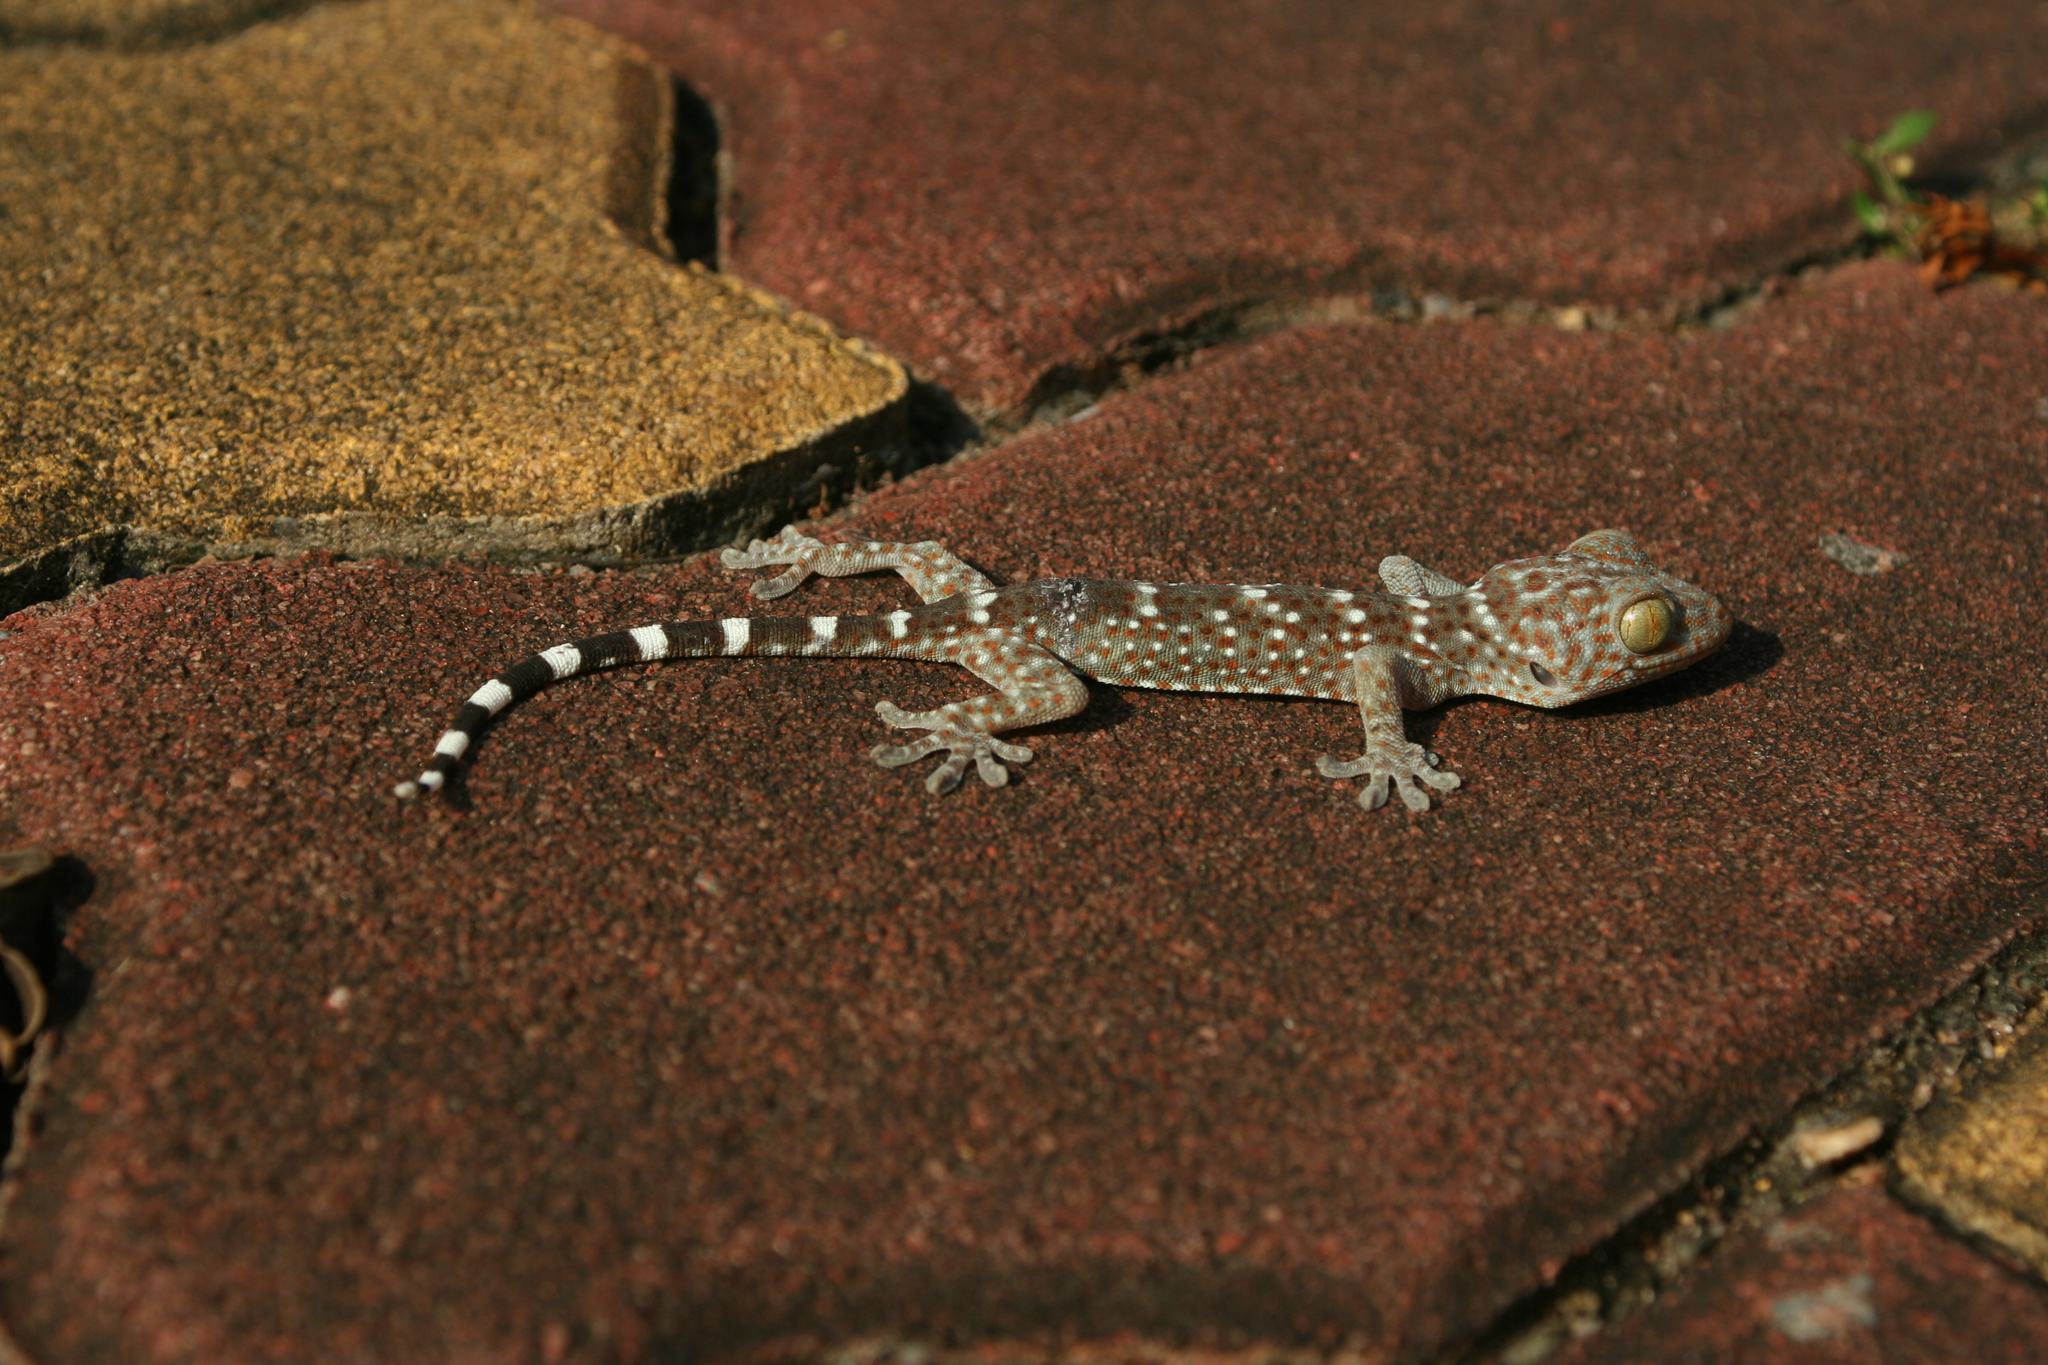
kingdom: Animalia
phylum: Chordata
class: Squamata
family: Gekkonidae
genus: Gekko
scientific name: Gekko gecko
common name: Tokay gecko
